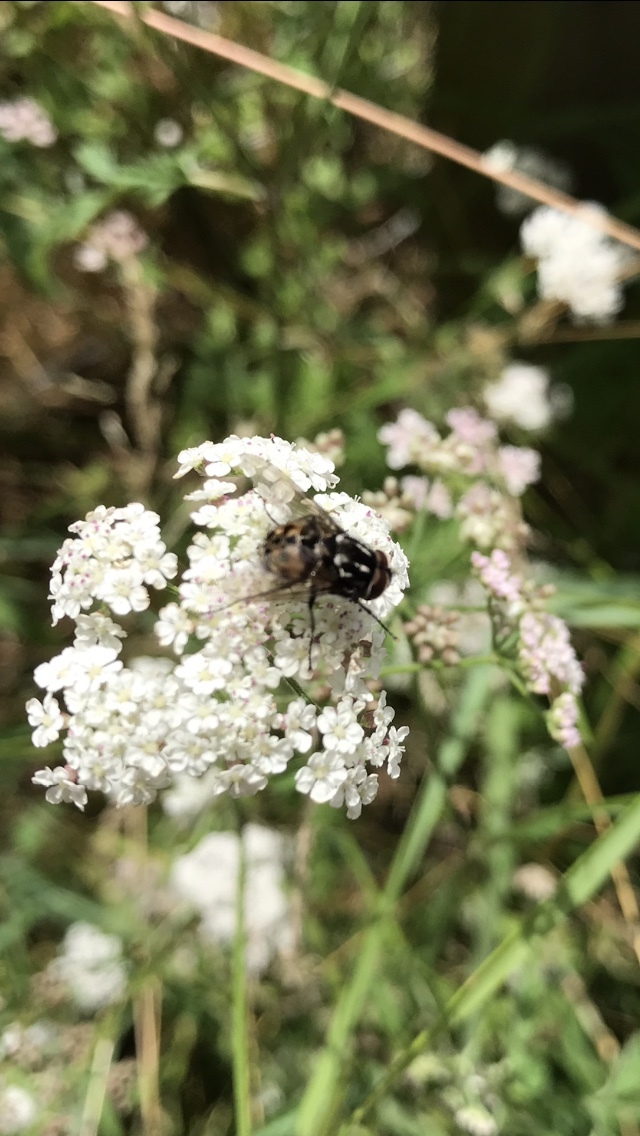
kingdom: Animalia
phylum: Arthropoda
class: Insecta
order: Diptera
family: Muscidae
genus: Graphomya
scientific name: Graphomya maculata
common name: Muscid fly
